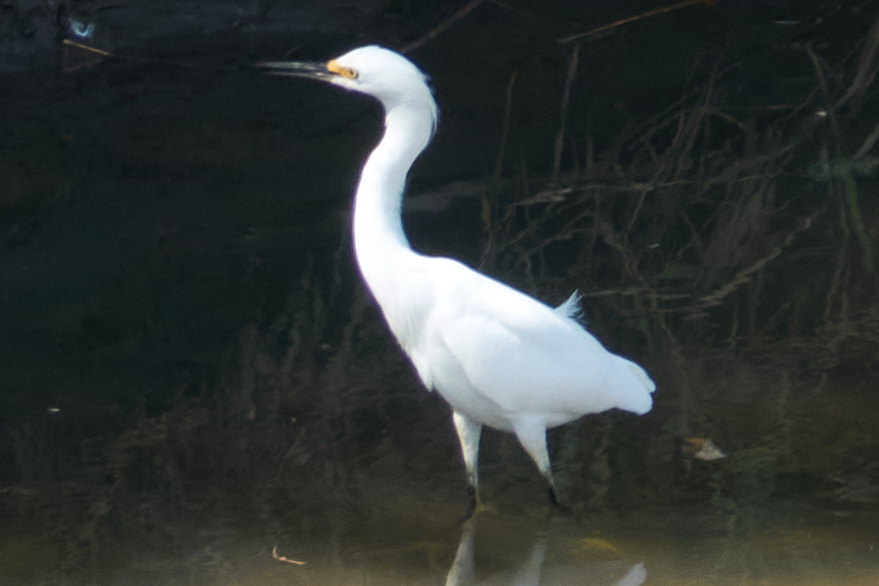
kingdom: Animalia
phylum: Chordata
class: Aves
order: Pelecaniformes
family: Ardeidae
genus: Egretta
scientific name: Egretta thula
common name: Snowy egret
